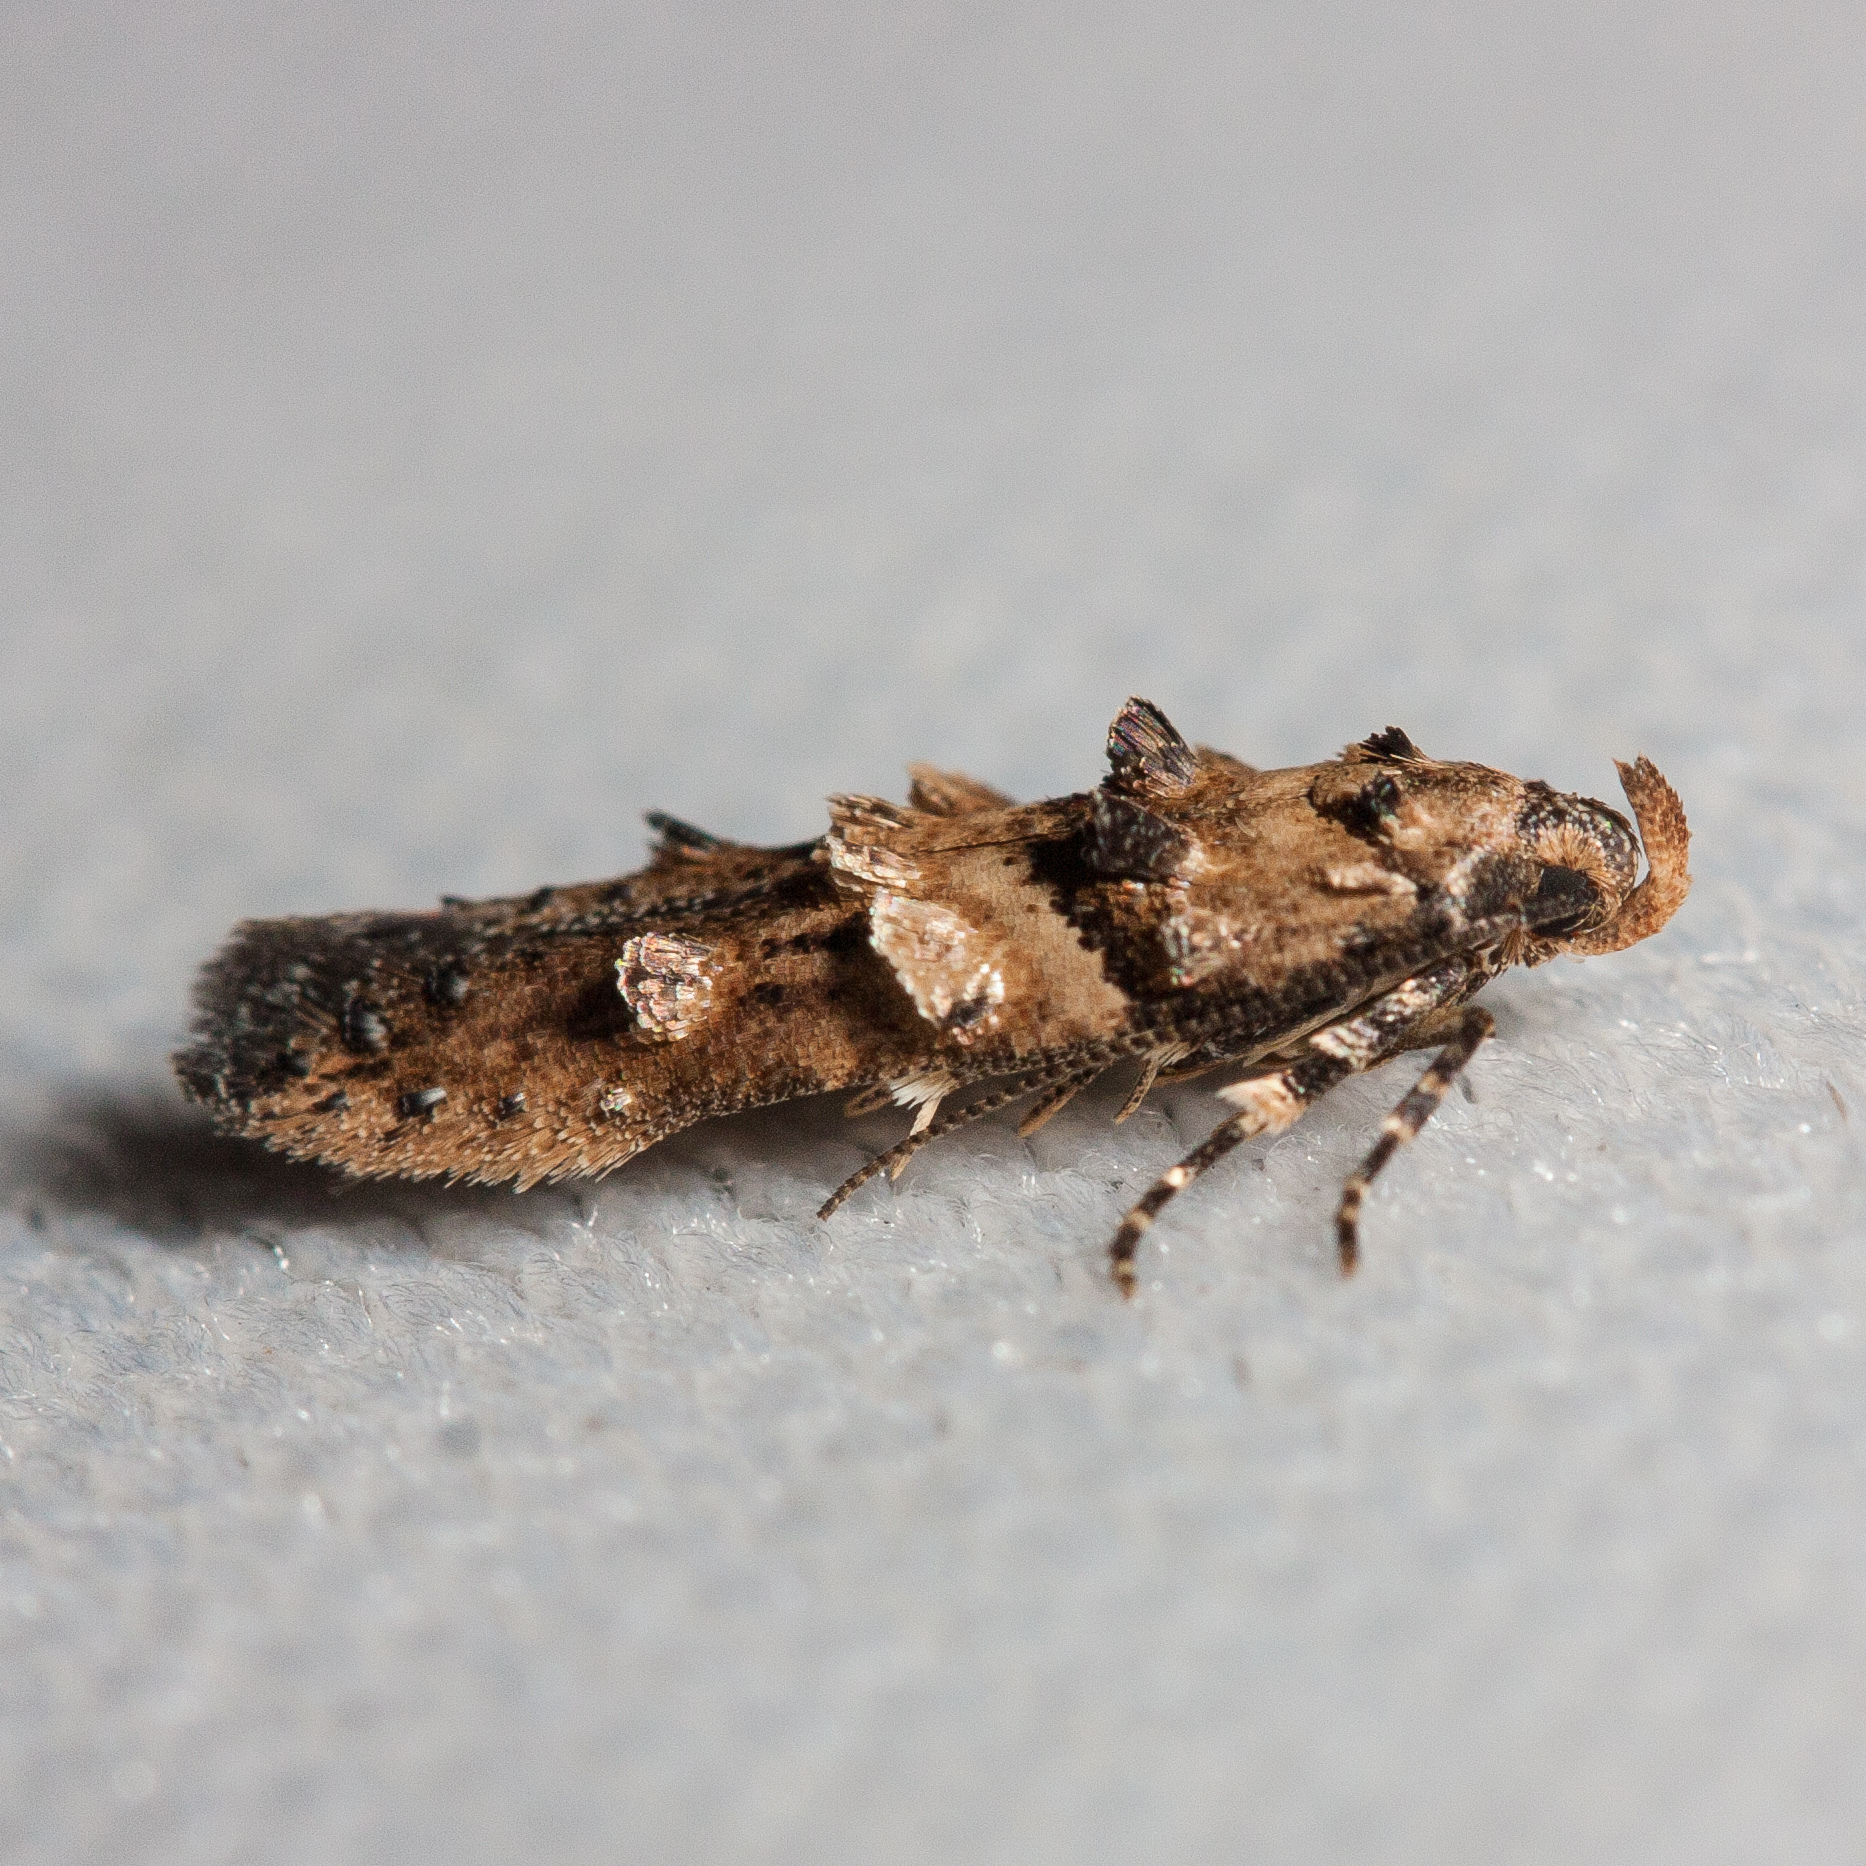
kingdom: Animalia
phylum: Arthropoda
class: Insecta
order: Lepidoptera
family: Cosmopterigidae
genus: Walshia
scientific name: Walshia miscecolorella
